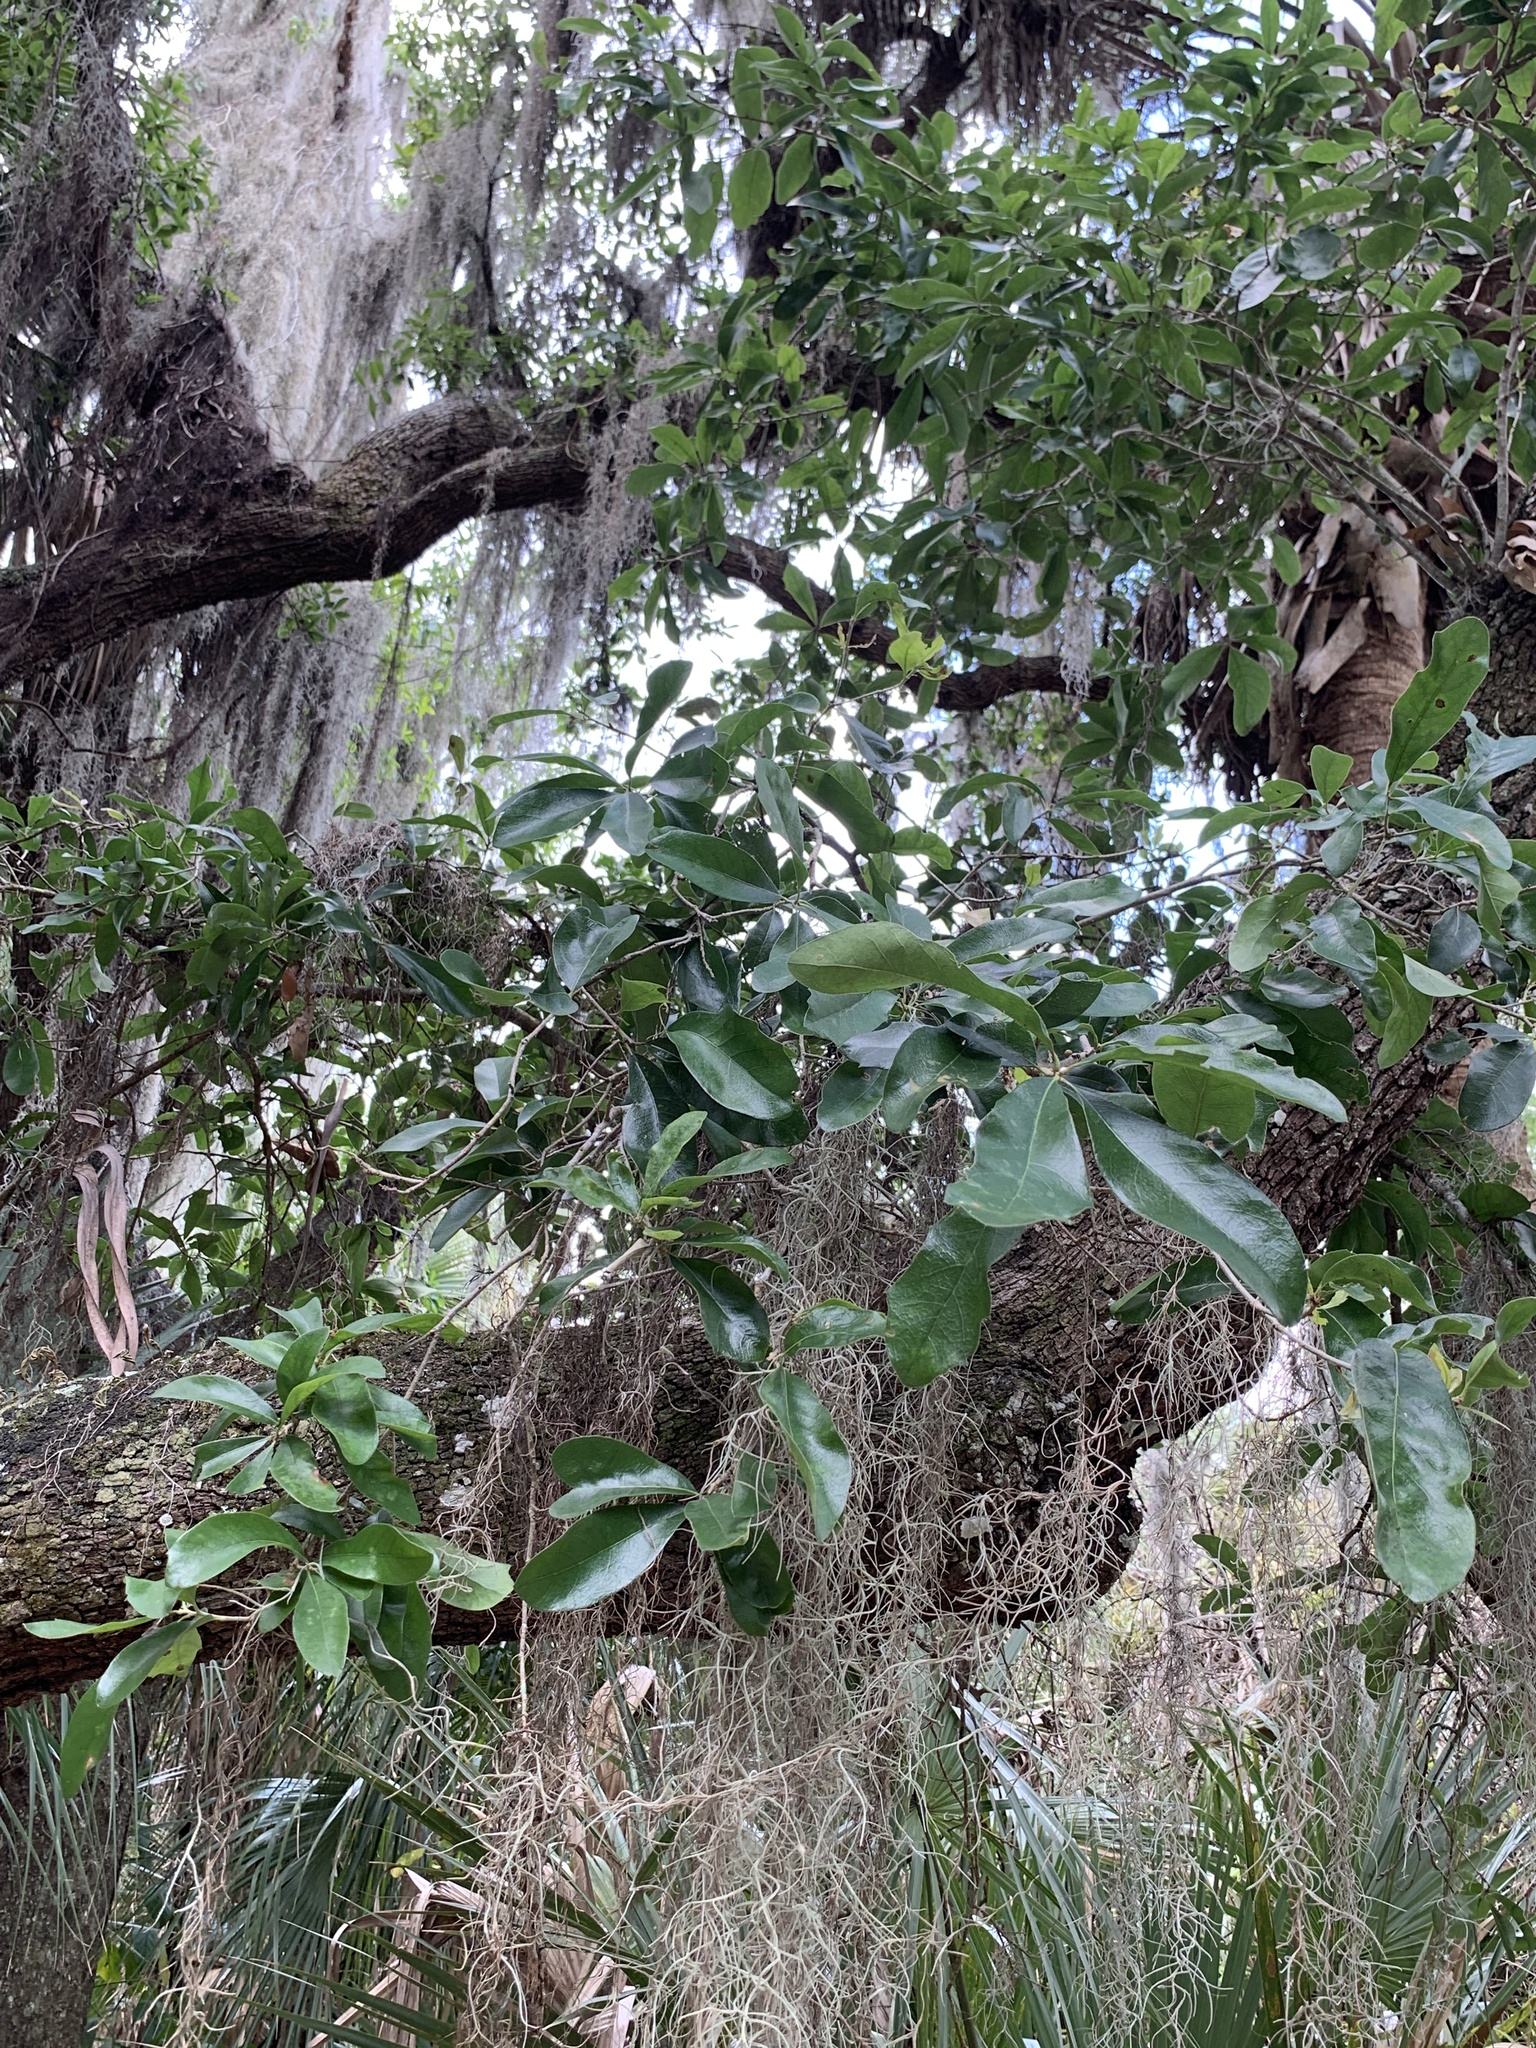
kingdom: Plantae
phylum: Tracheophyta
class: Magnoliopsida
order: Fagales
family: Fagaceae
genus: Quercus
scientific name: Quercus virginiana
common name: Southern live oak
